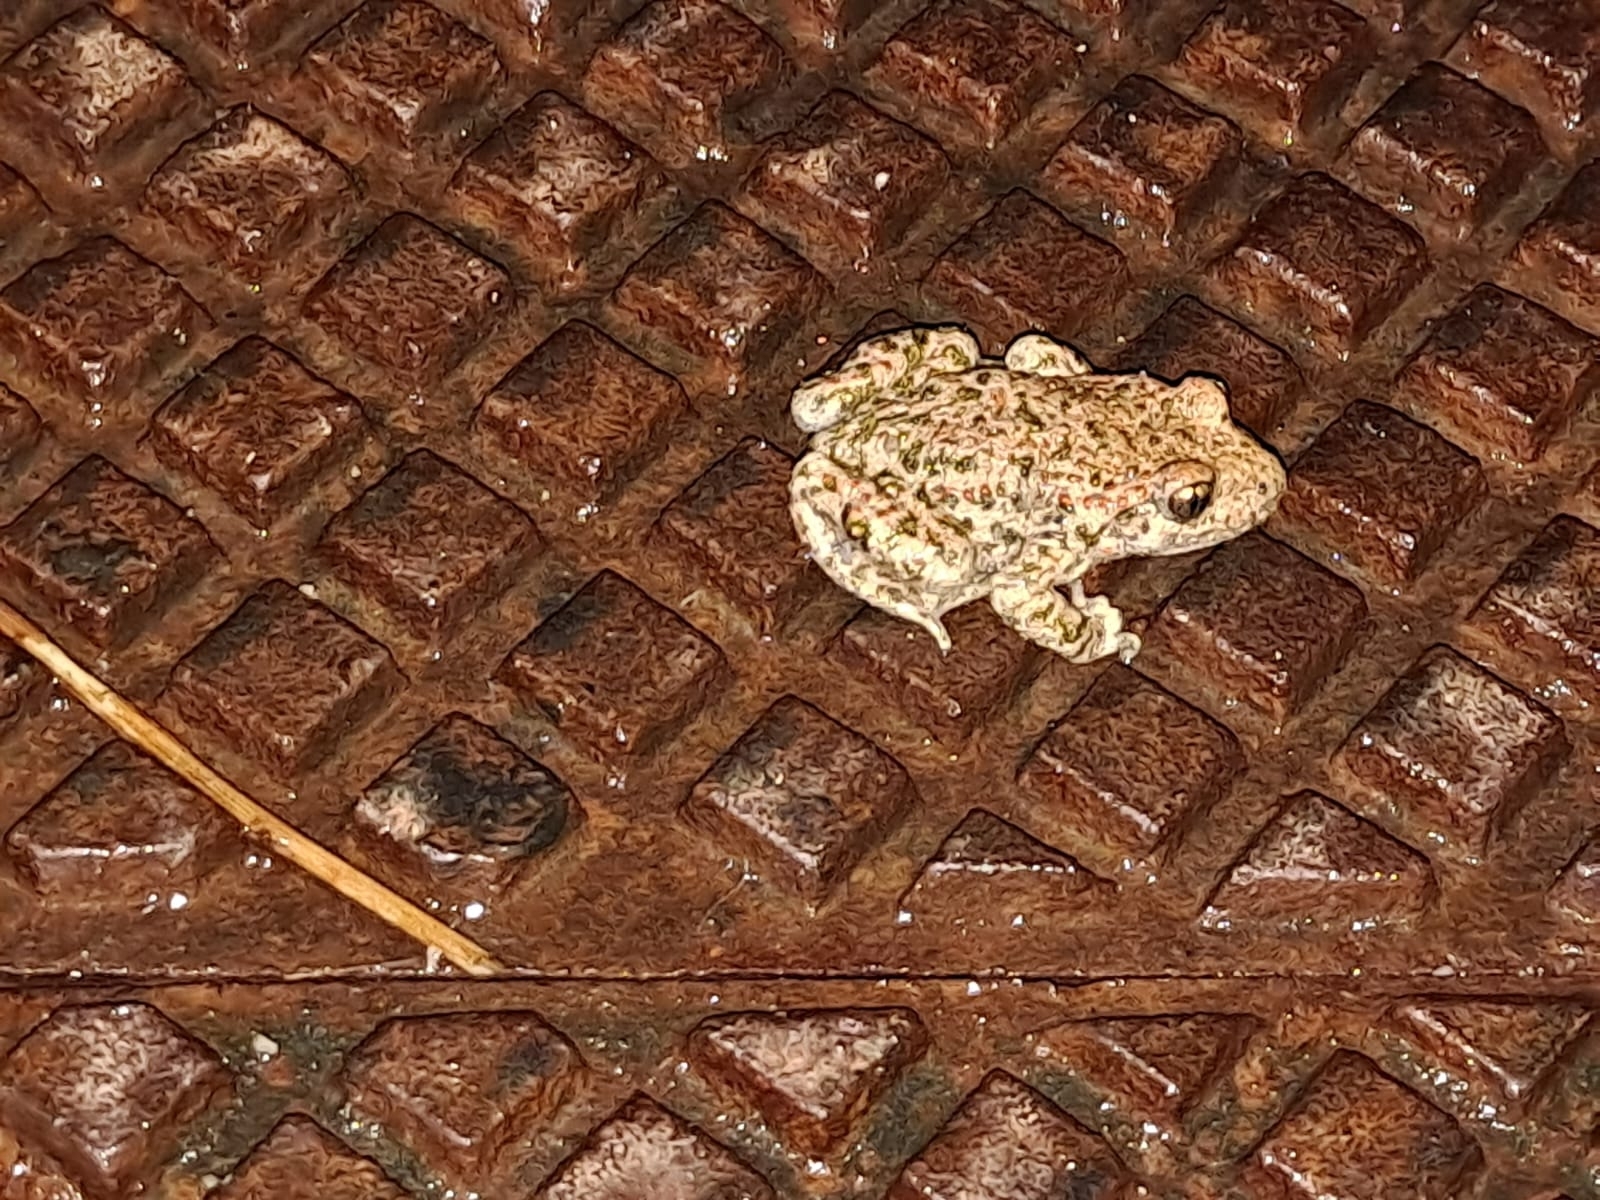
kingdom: Animalia
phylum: Chordata
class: Amphibia
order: Anura
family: Alytidae
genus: Alytes
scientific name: Alytes obstetricans
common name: Midwife toad
